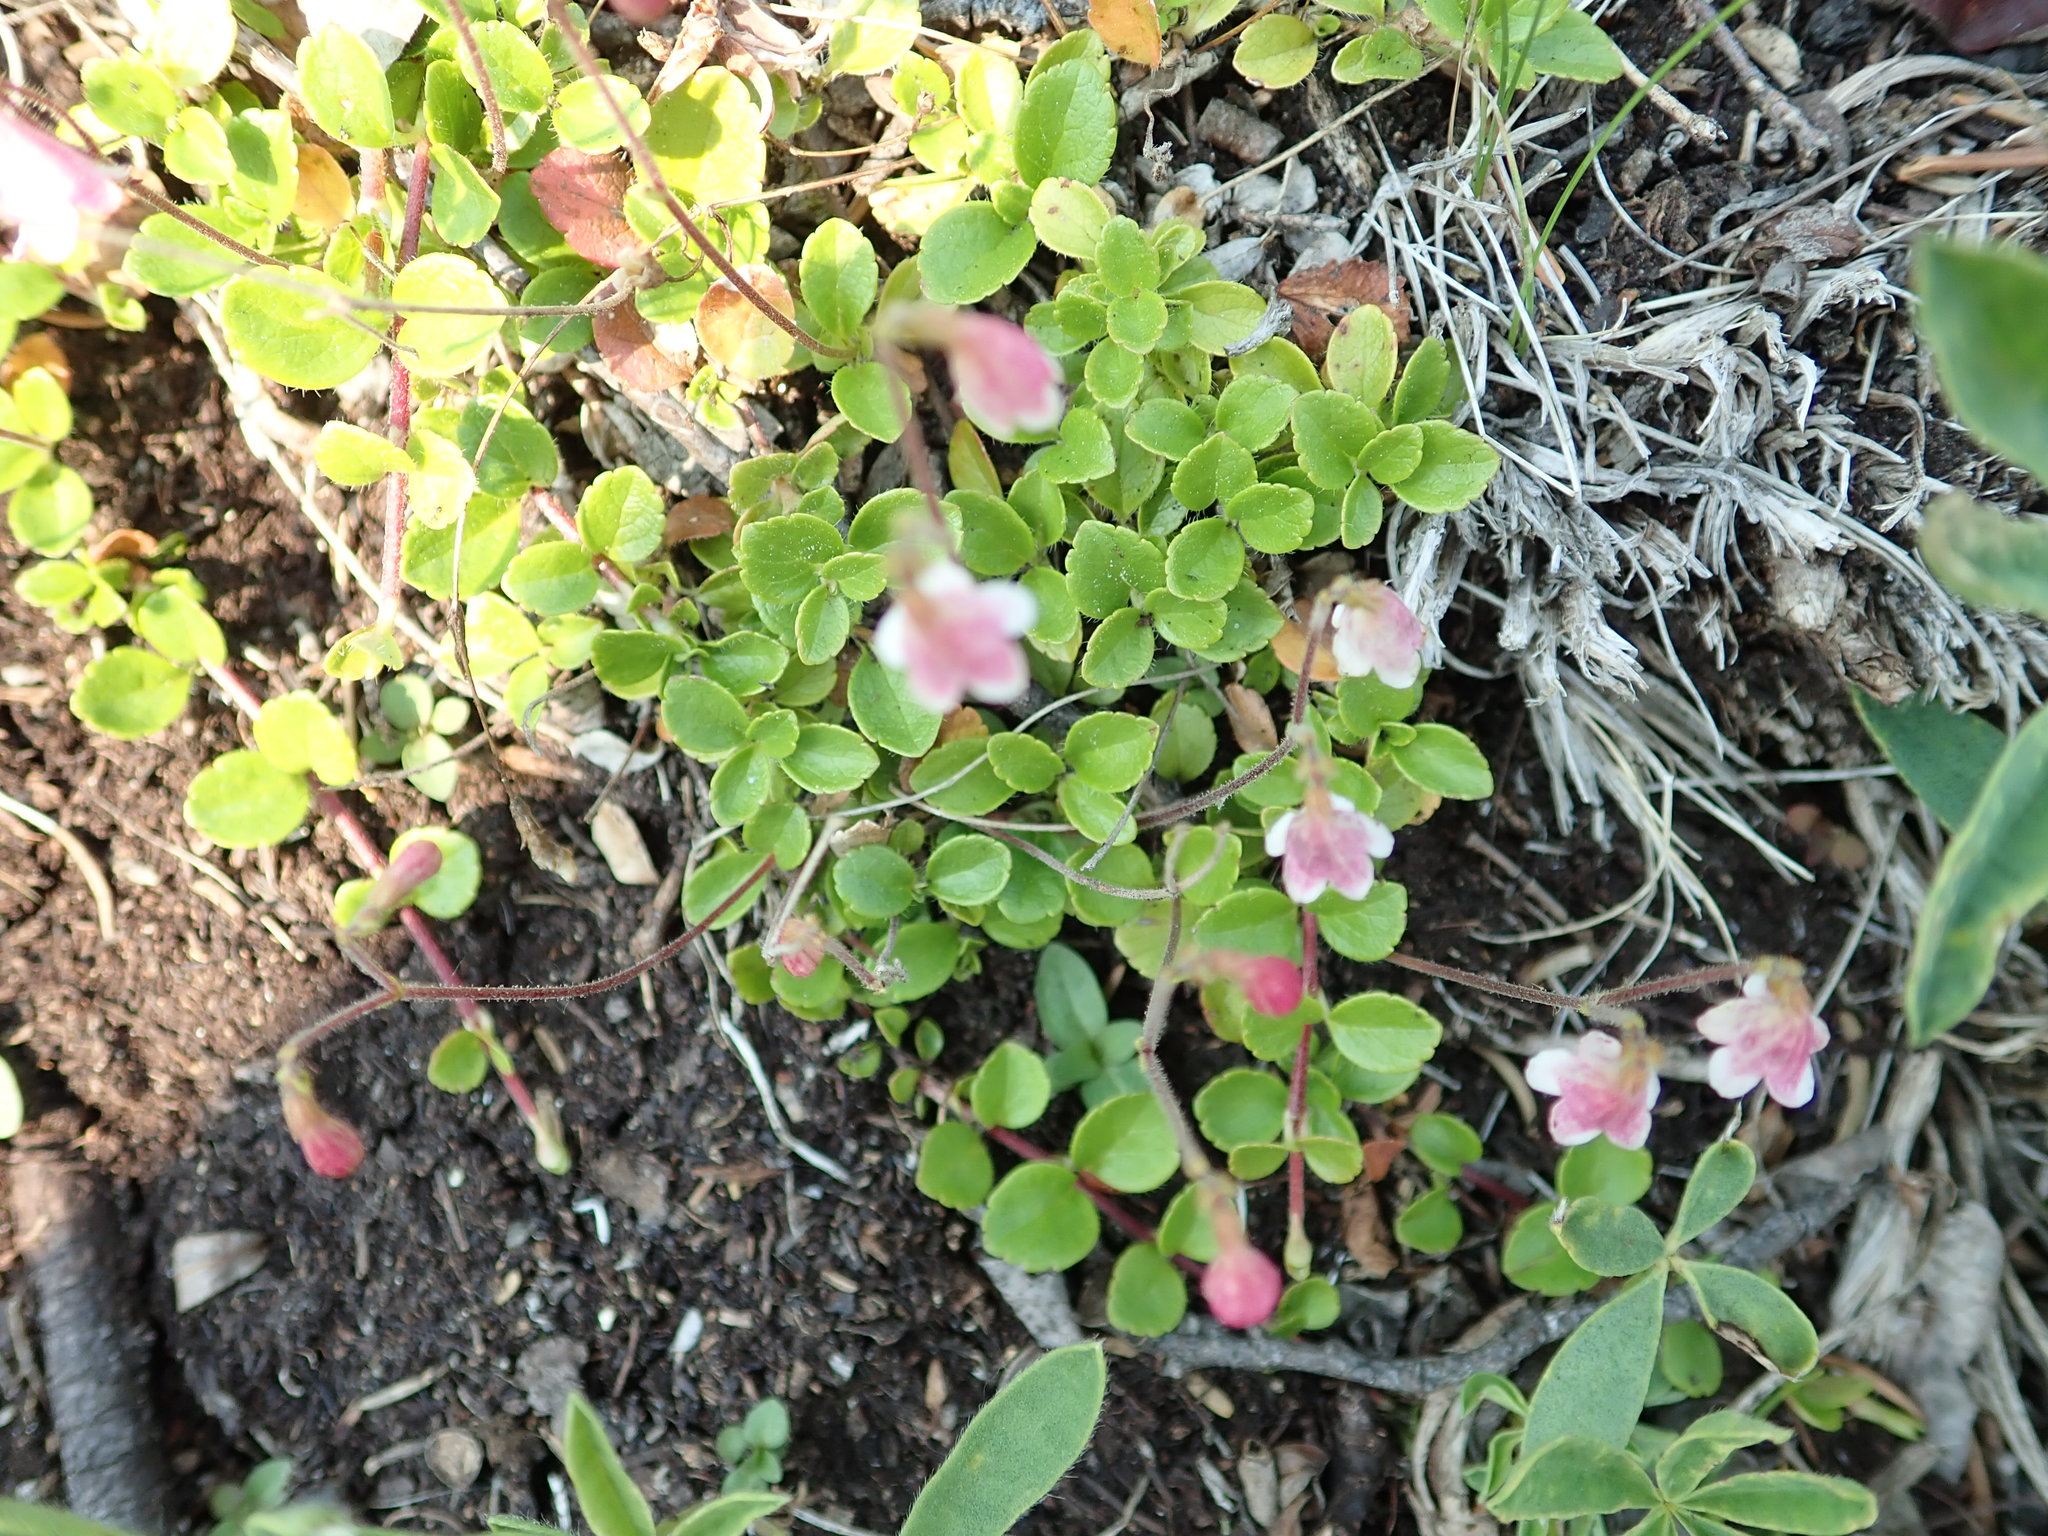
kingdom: Plantae
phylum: Tracheophyta
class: Magnoliopsida
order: Dipsacales
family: Caprifoliaceae
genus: Linnaea
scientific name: Linnaea borealis
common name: Twinflower
